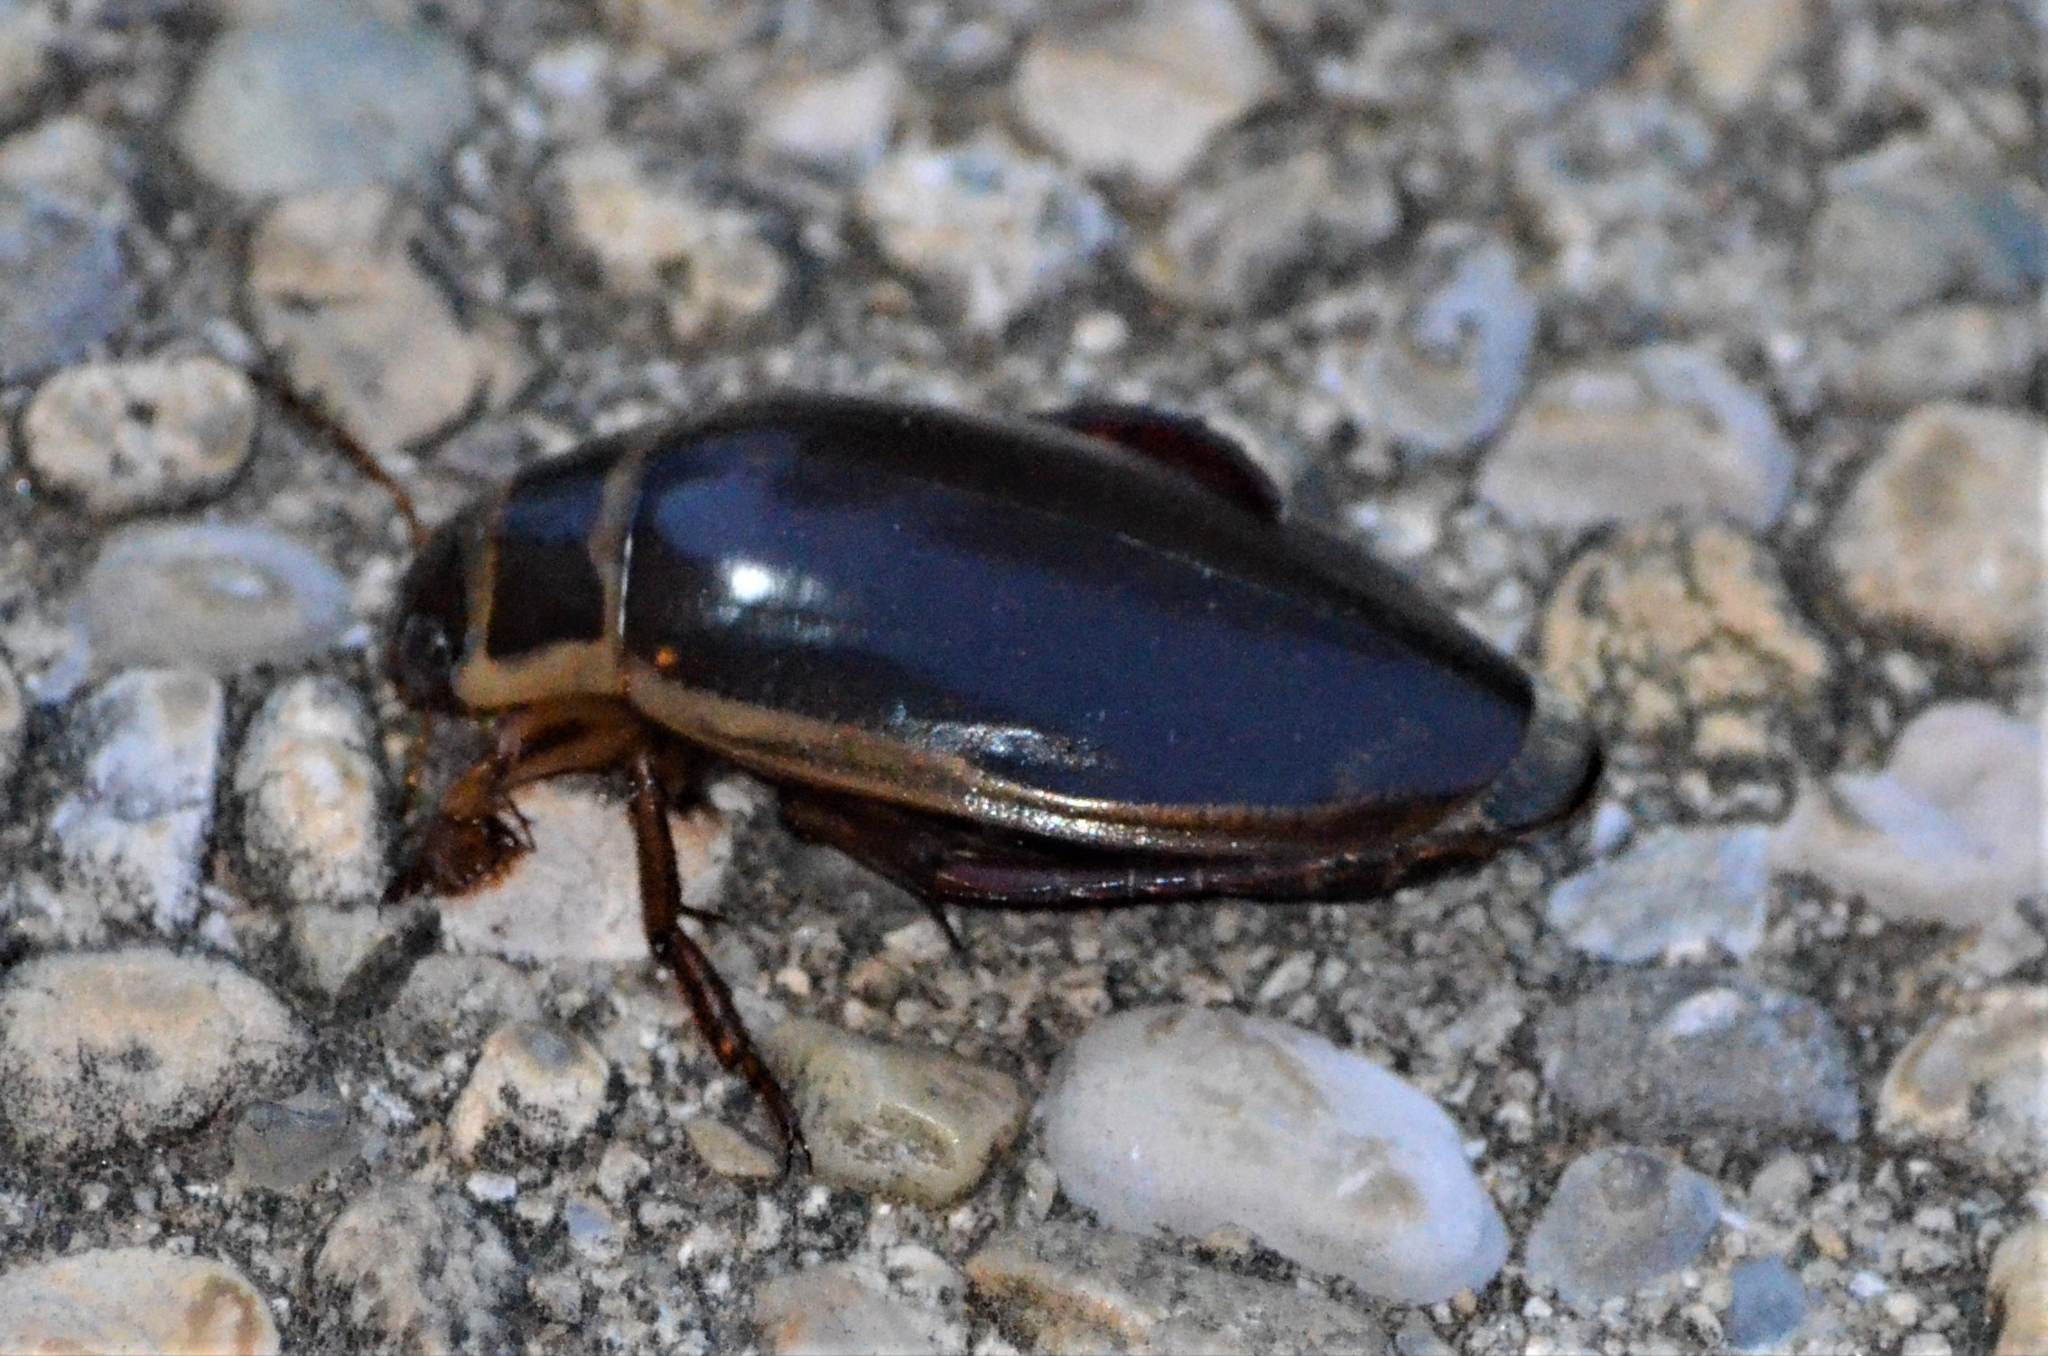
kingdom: Animalia
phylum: Arthropoda
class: Insecta
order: Coleoptera
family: Dytiscidae
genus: Dytiscus
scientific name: Dytiscus marginalis
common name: Great water beetle
